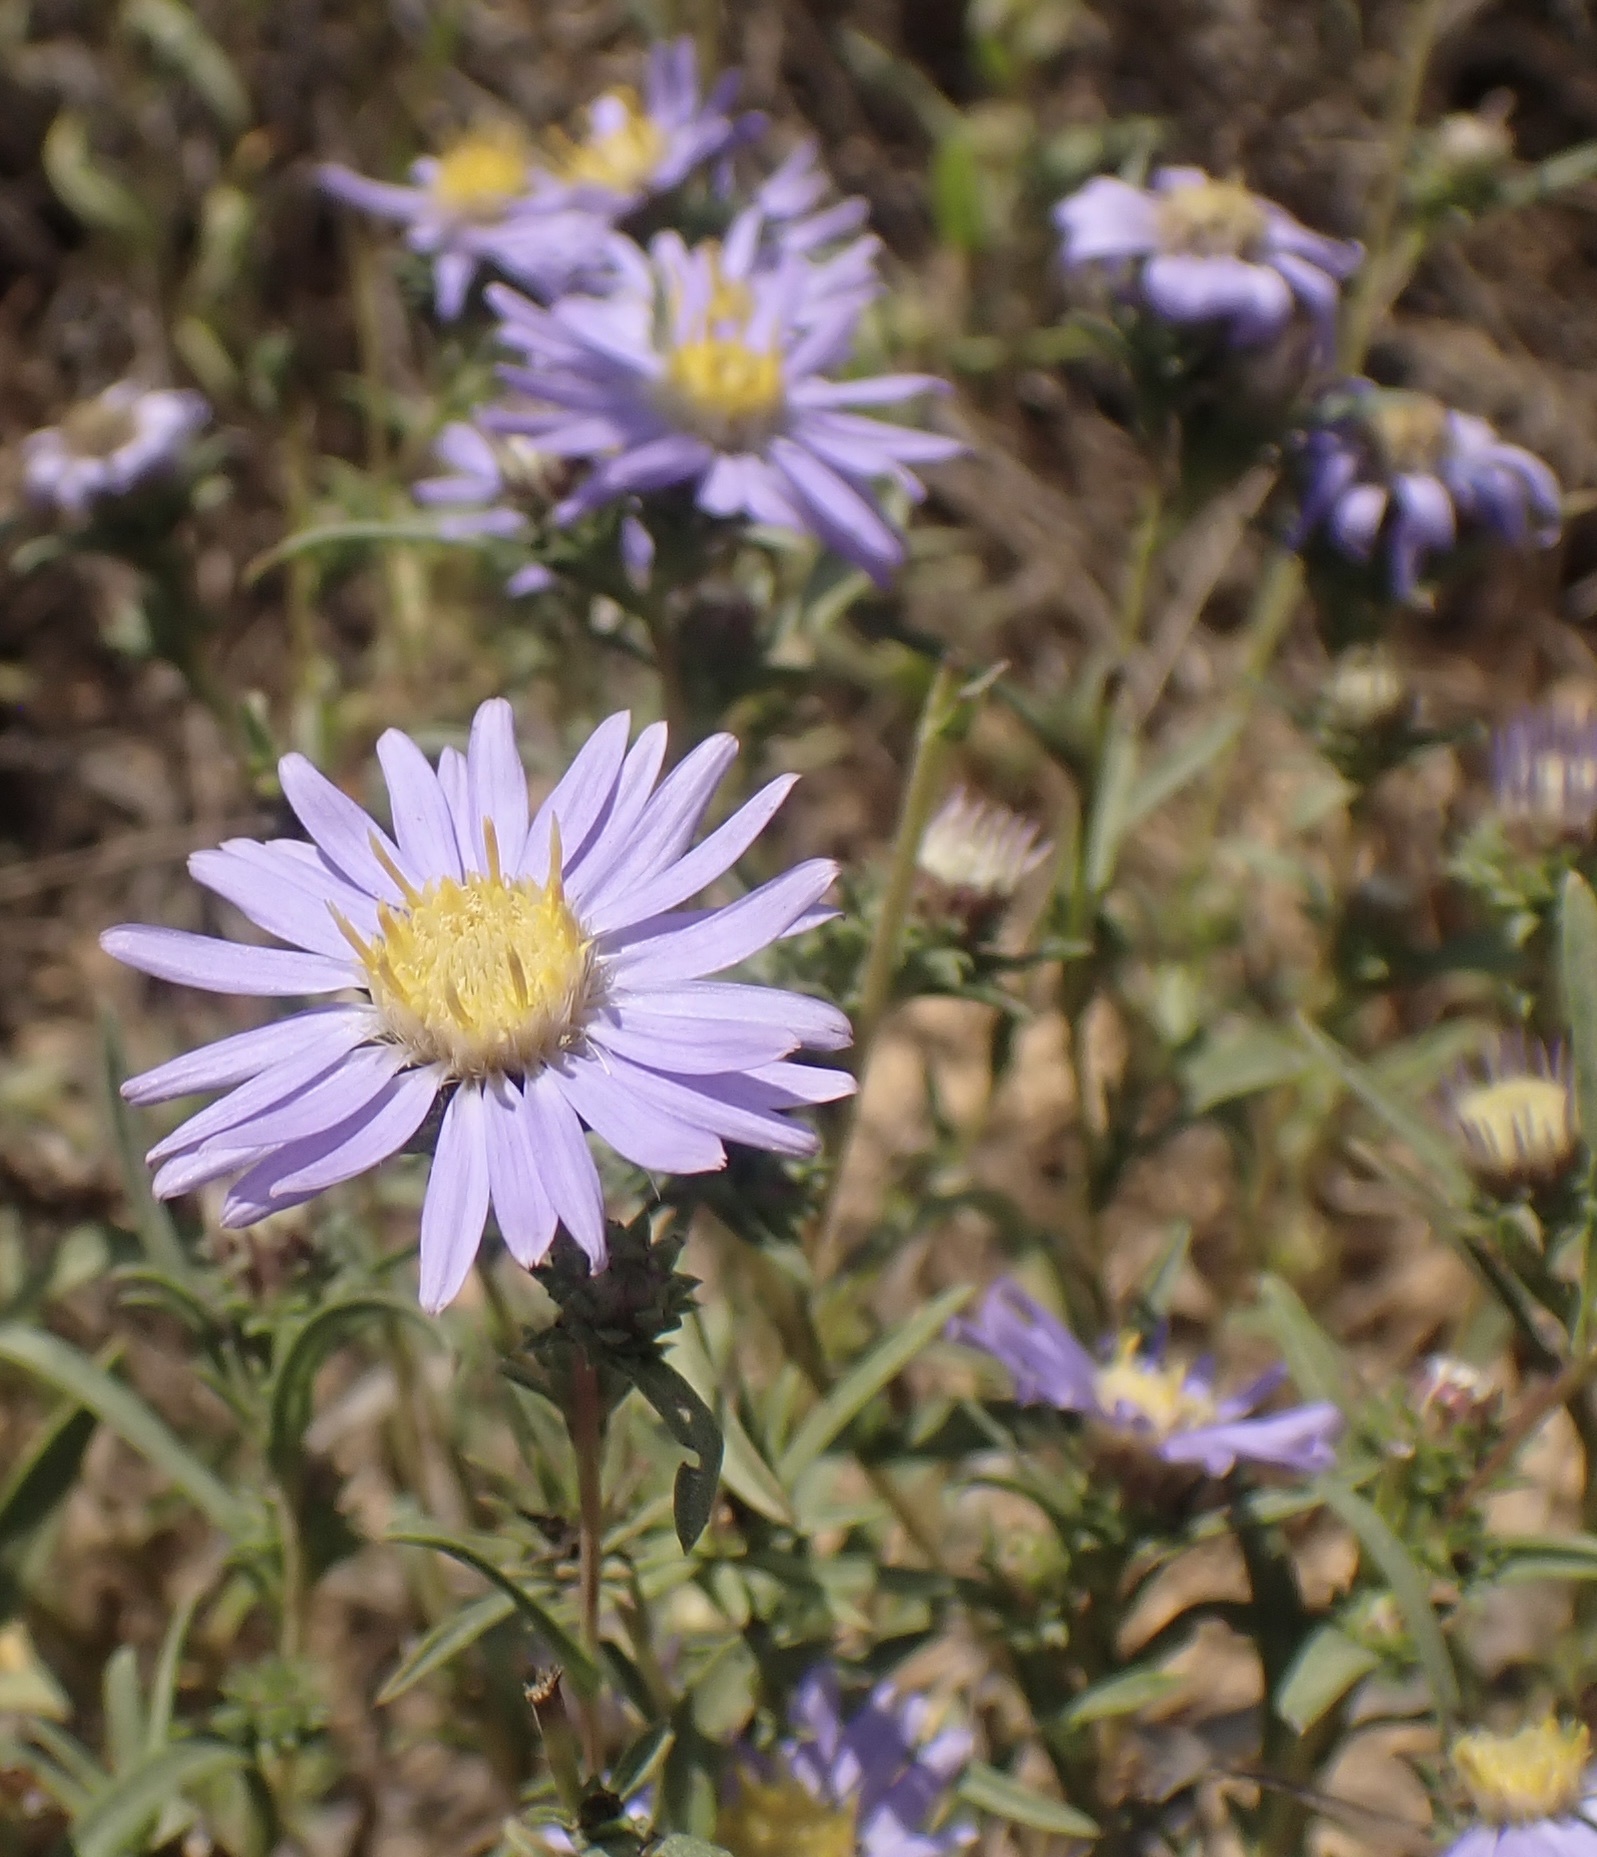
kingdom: Plantae
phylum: Tracheophyta
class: Magnoliopsida
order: Asterales
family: Asteraceae
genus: Eurybia
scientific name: Eurybia hemispherica
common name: Showy aster
